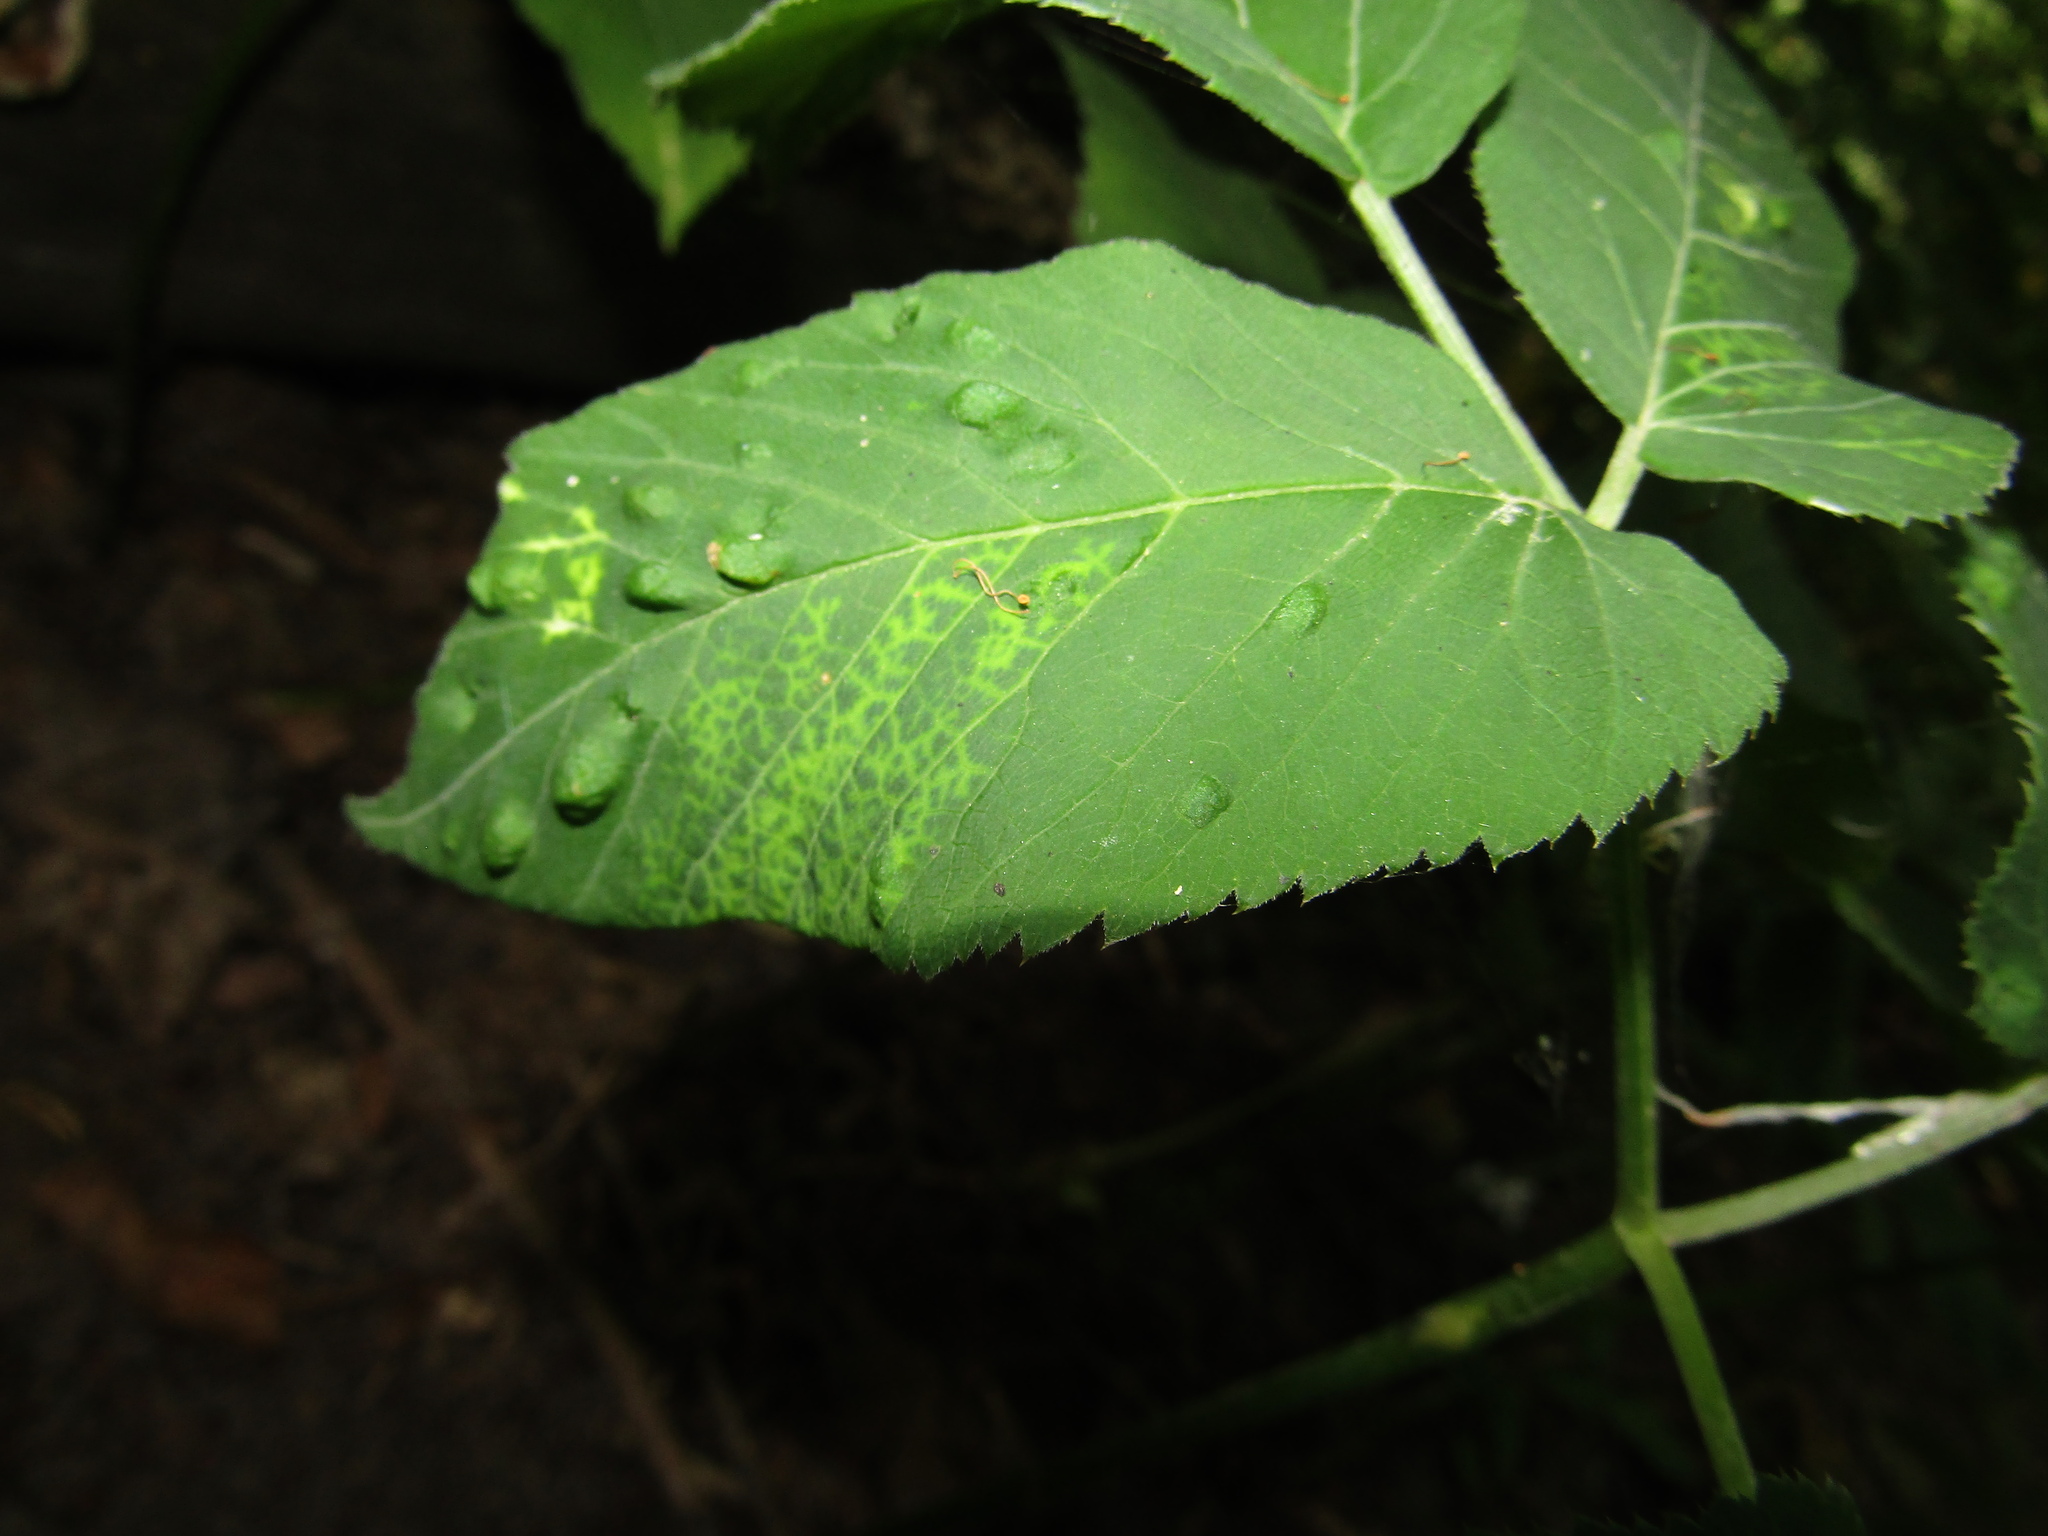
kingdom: Animalia
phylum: Arthropoda
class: Insecta
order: Hemiptera
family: Triozidae
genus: Trioza
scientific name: Trioza flavipennis
